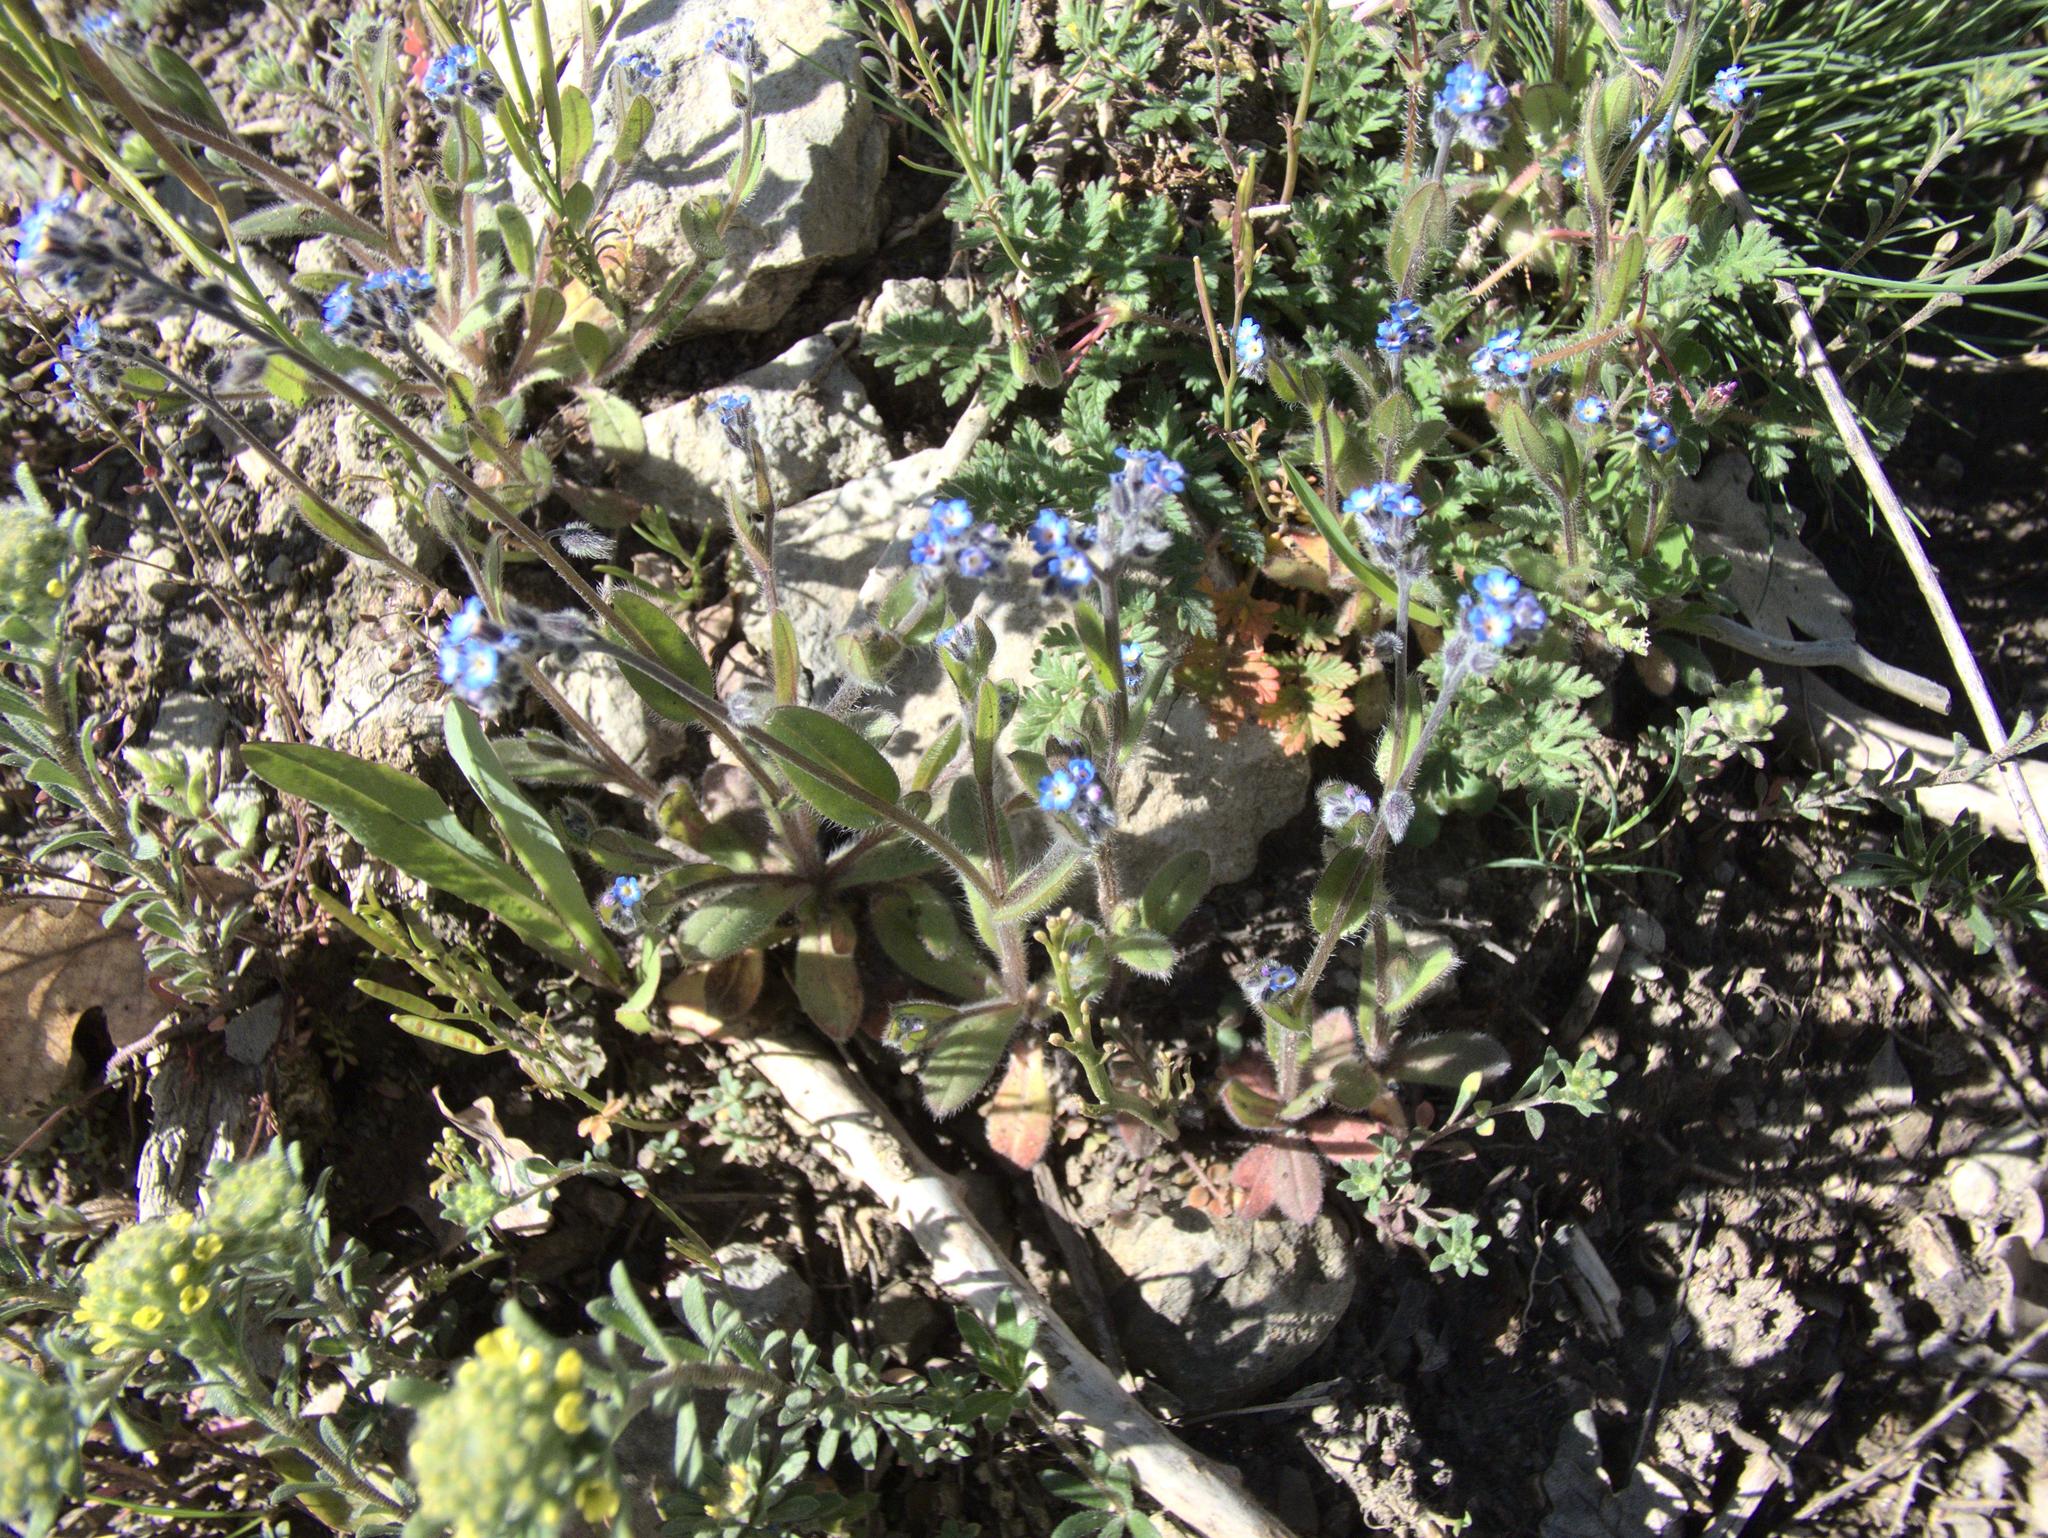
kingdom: Plantae
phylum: Tracheophyta
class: Magnoliopsida
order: Boraginales
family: Boraginaceae
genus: Myosotis
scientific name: Myosotis ramosissima
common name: Early forget-me-not
